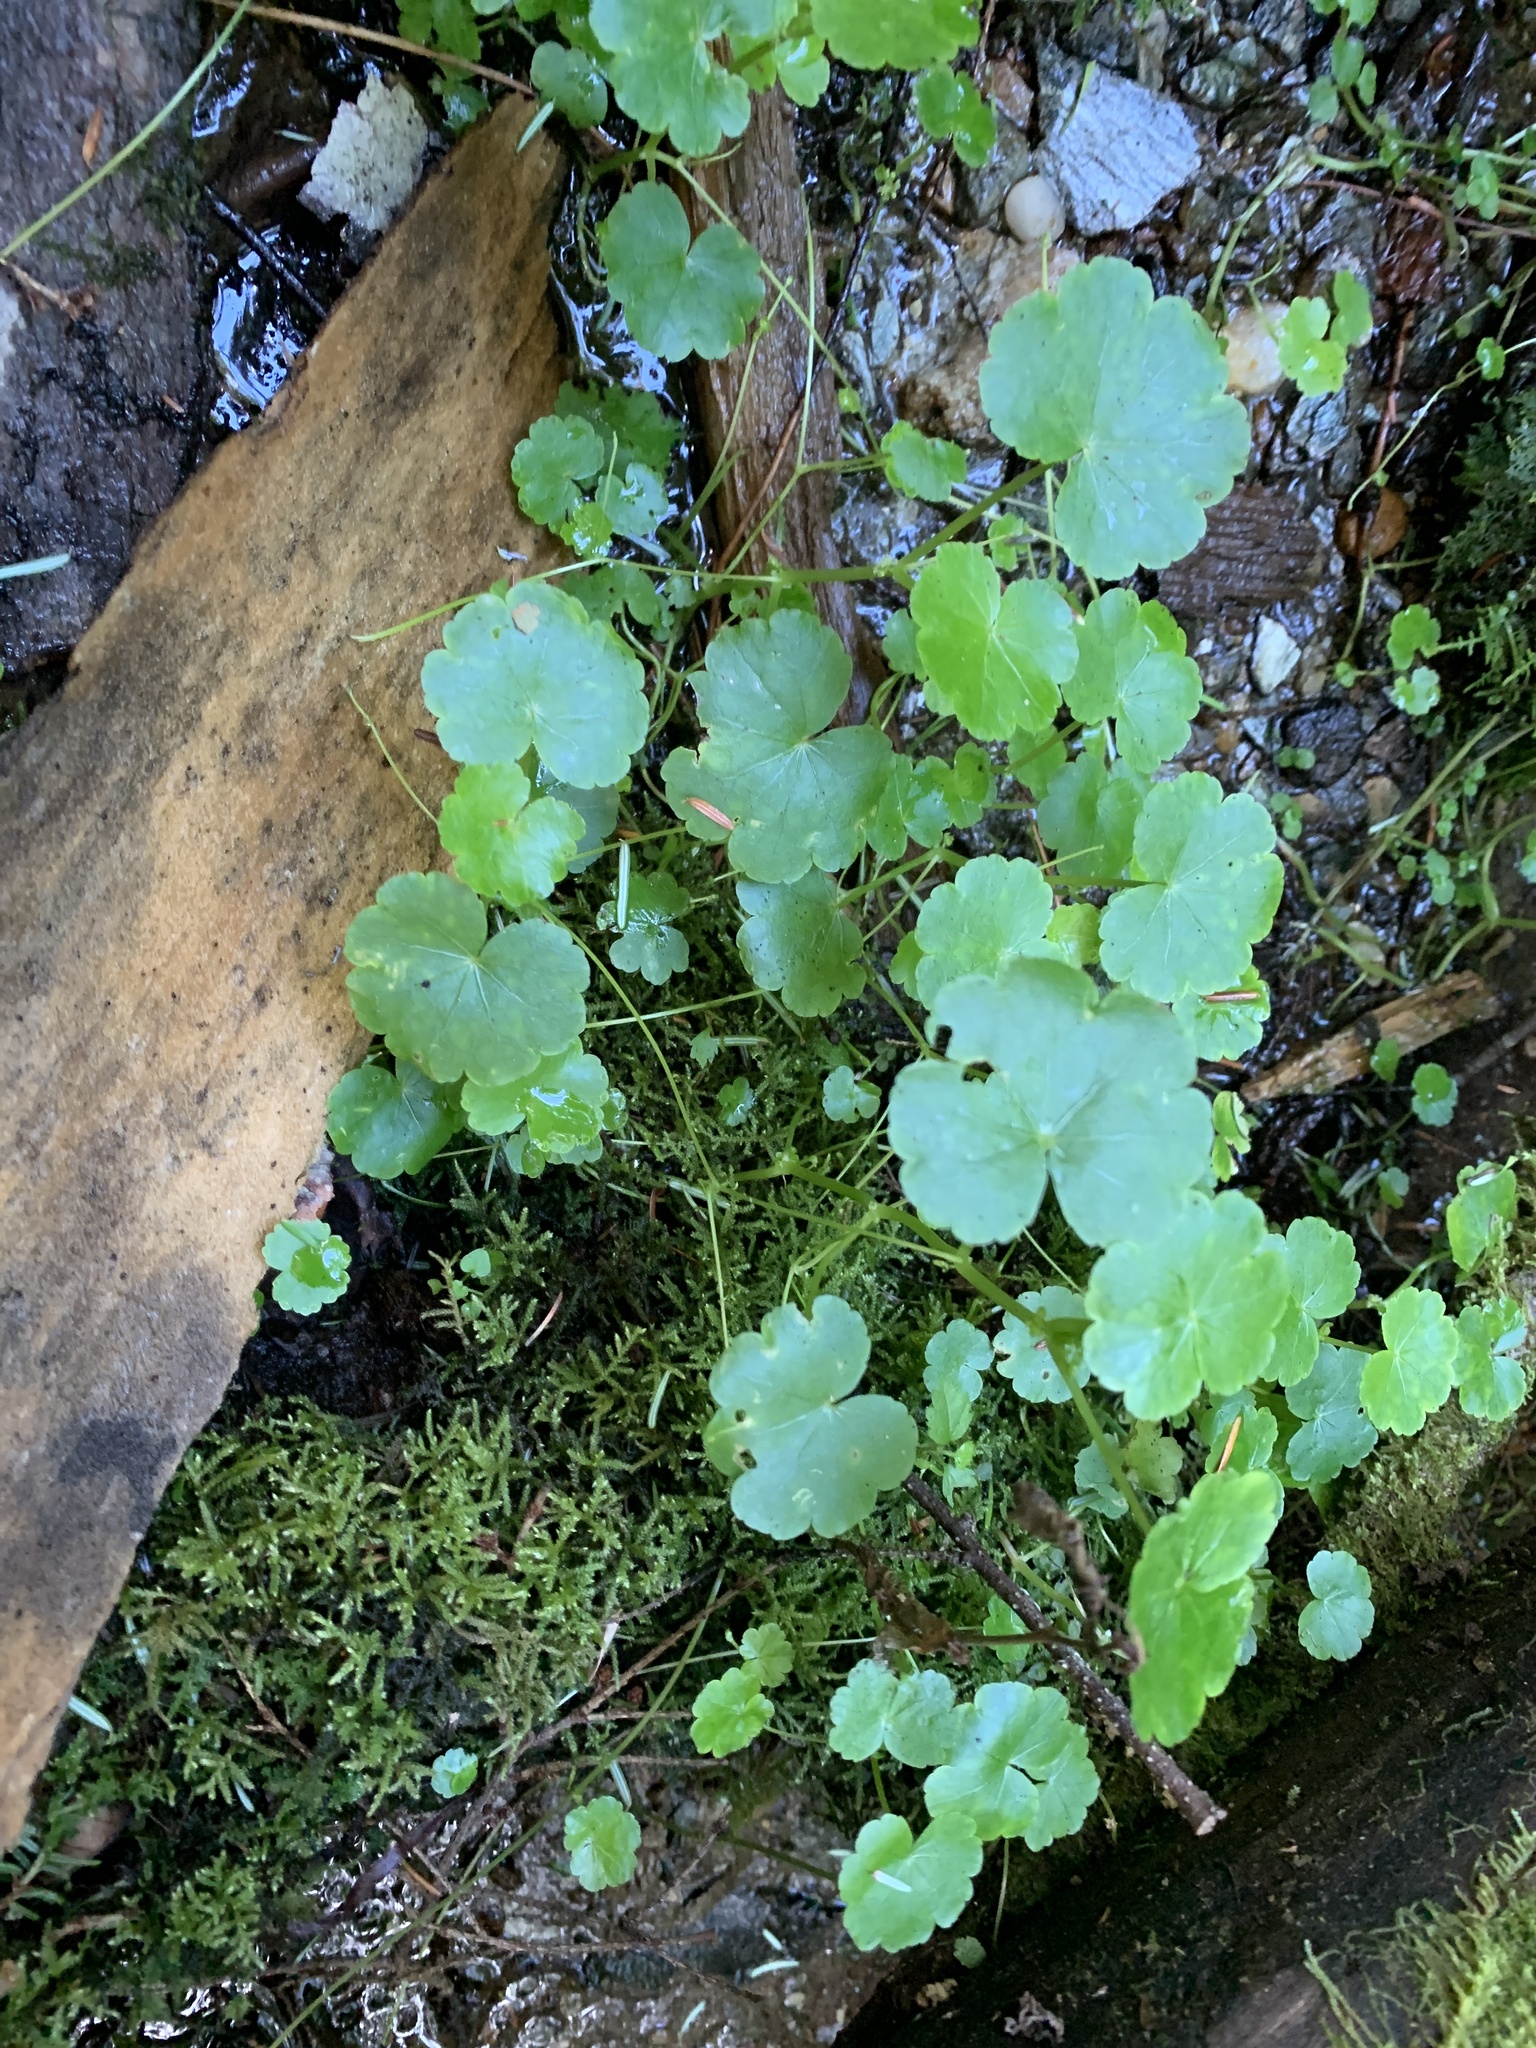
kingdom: Plantae
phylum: Tracheophyta
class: Magnoliopsida
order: Apiales
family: Araliaceae
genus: Hydrocotyle
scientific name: Hydrocotyle americana
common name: American water-pennywort
